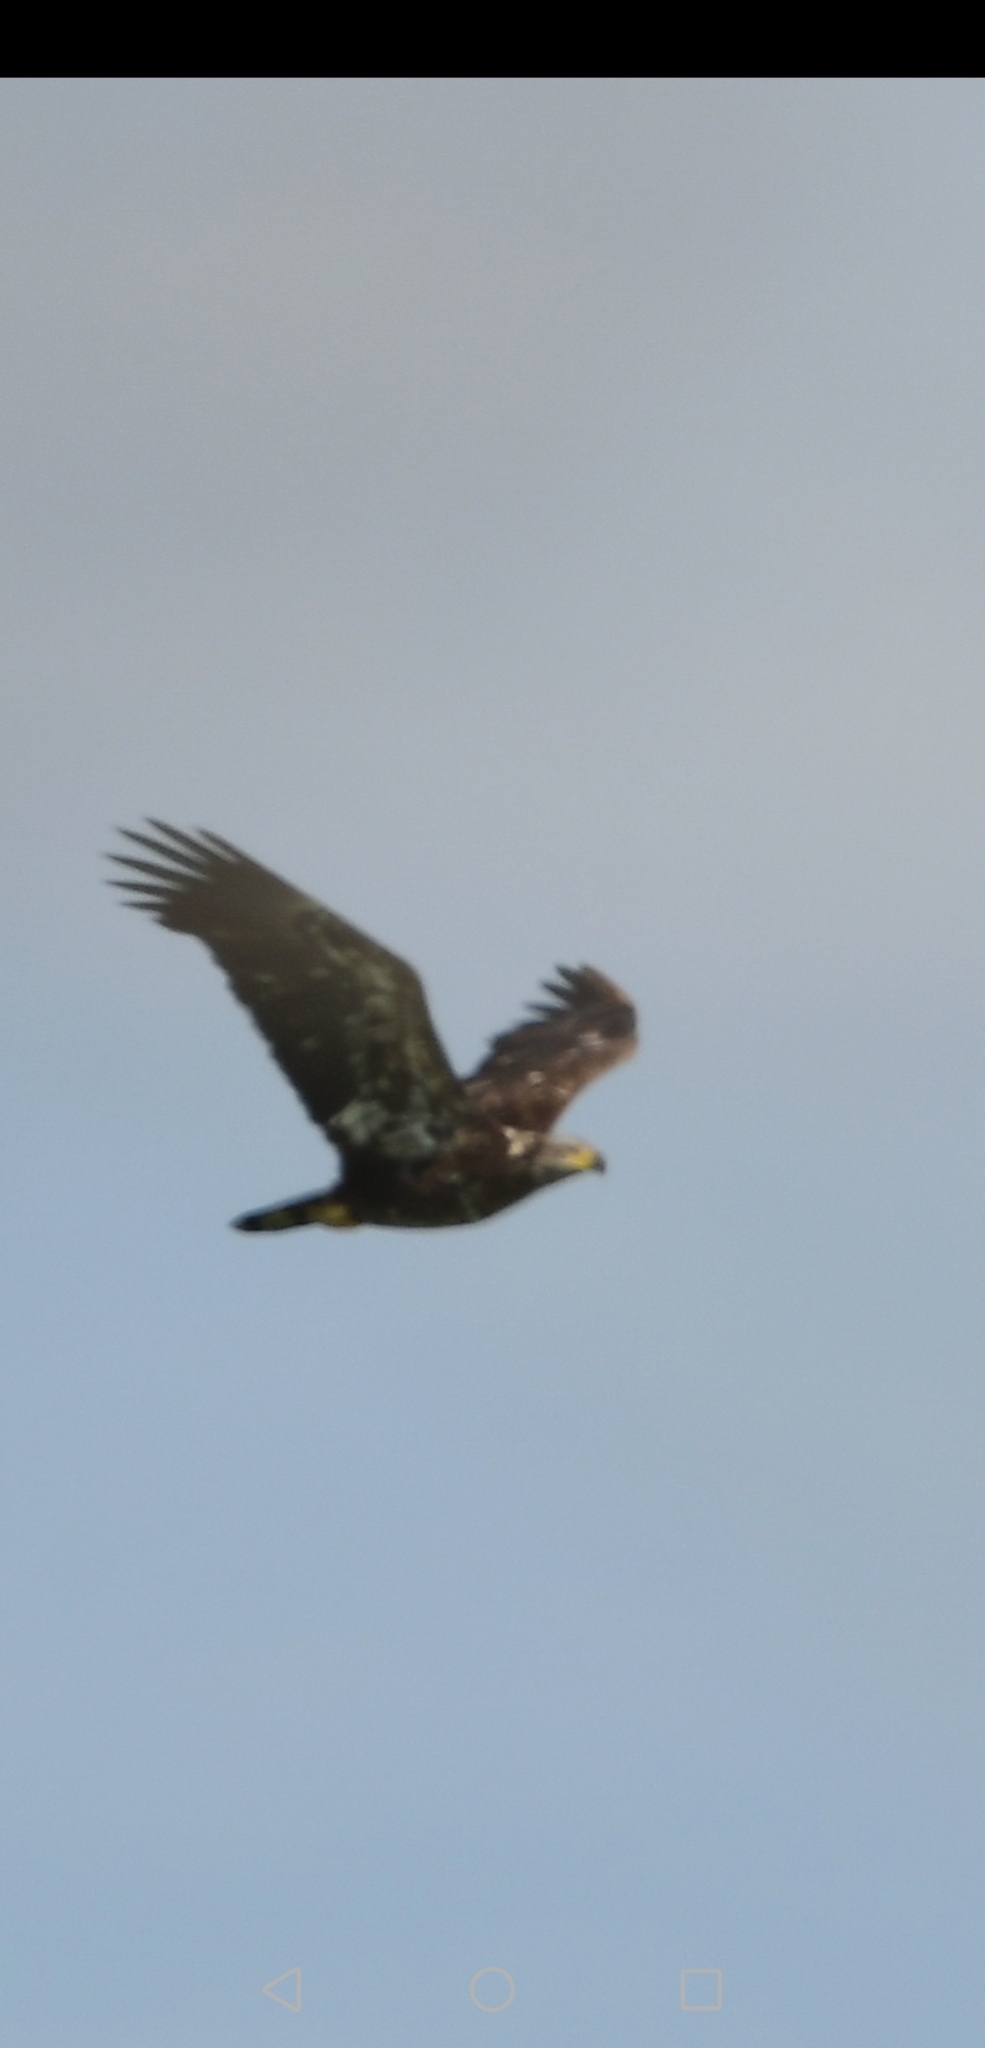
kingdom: Animalia
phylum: Chordata
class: Aves
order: Accipitriformes
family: Accipitridae
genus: Haliaeetus
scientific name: Haliaeetus leucocephalus
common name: Bald eagle
